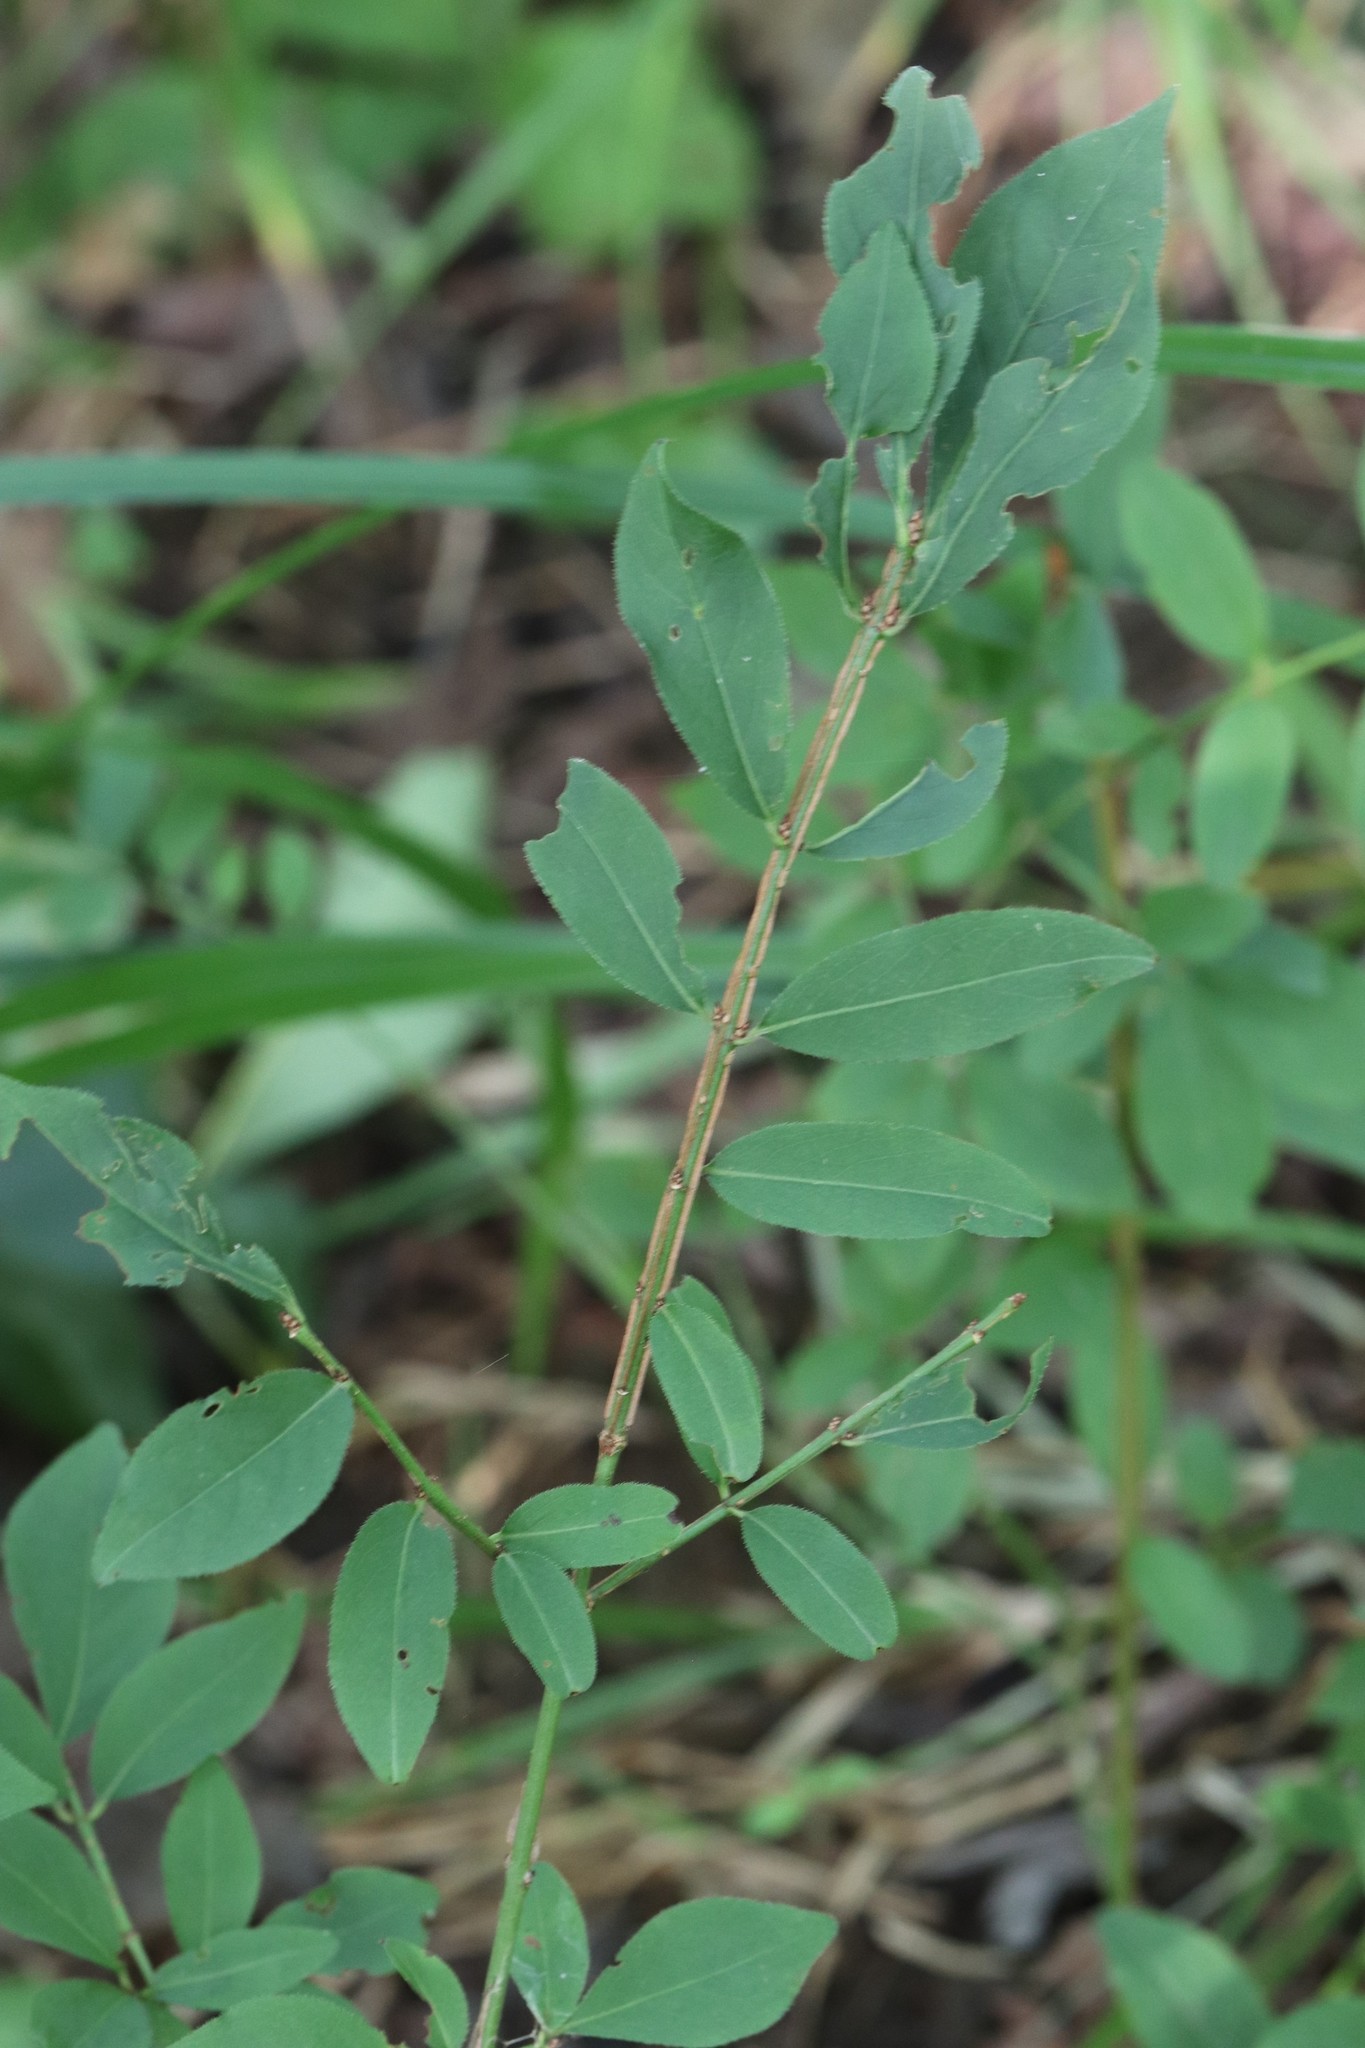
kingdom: Plantae
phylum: Tracheophyta
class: Magnoliopsida
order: Celastrales
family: Celastraceae
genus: Euonymus
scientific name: Euonymus alatus
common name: Winged euonymus
